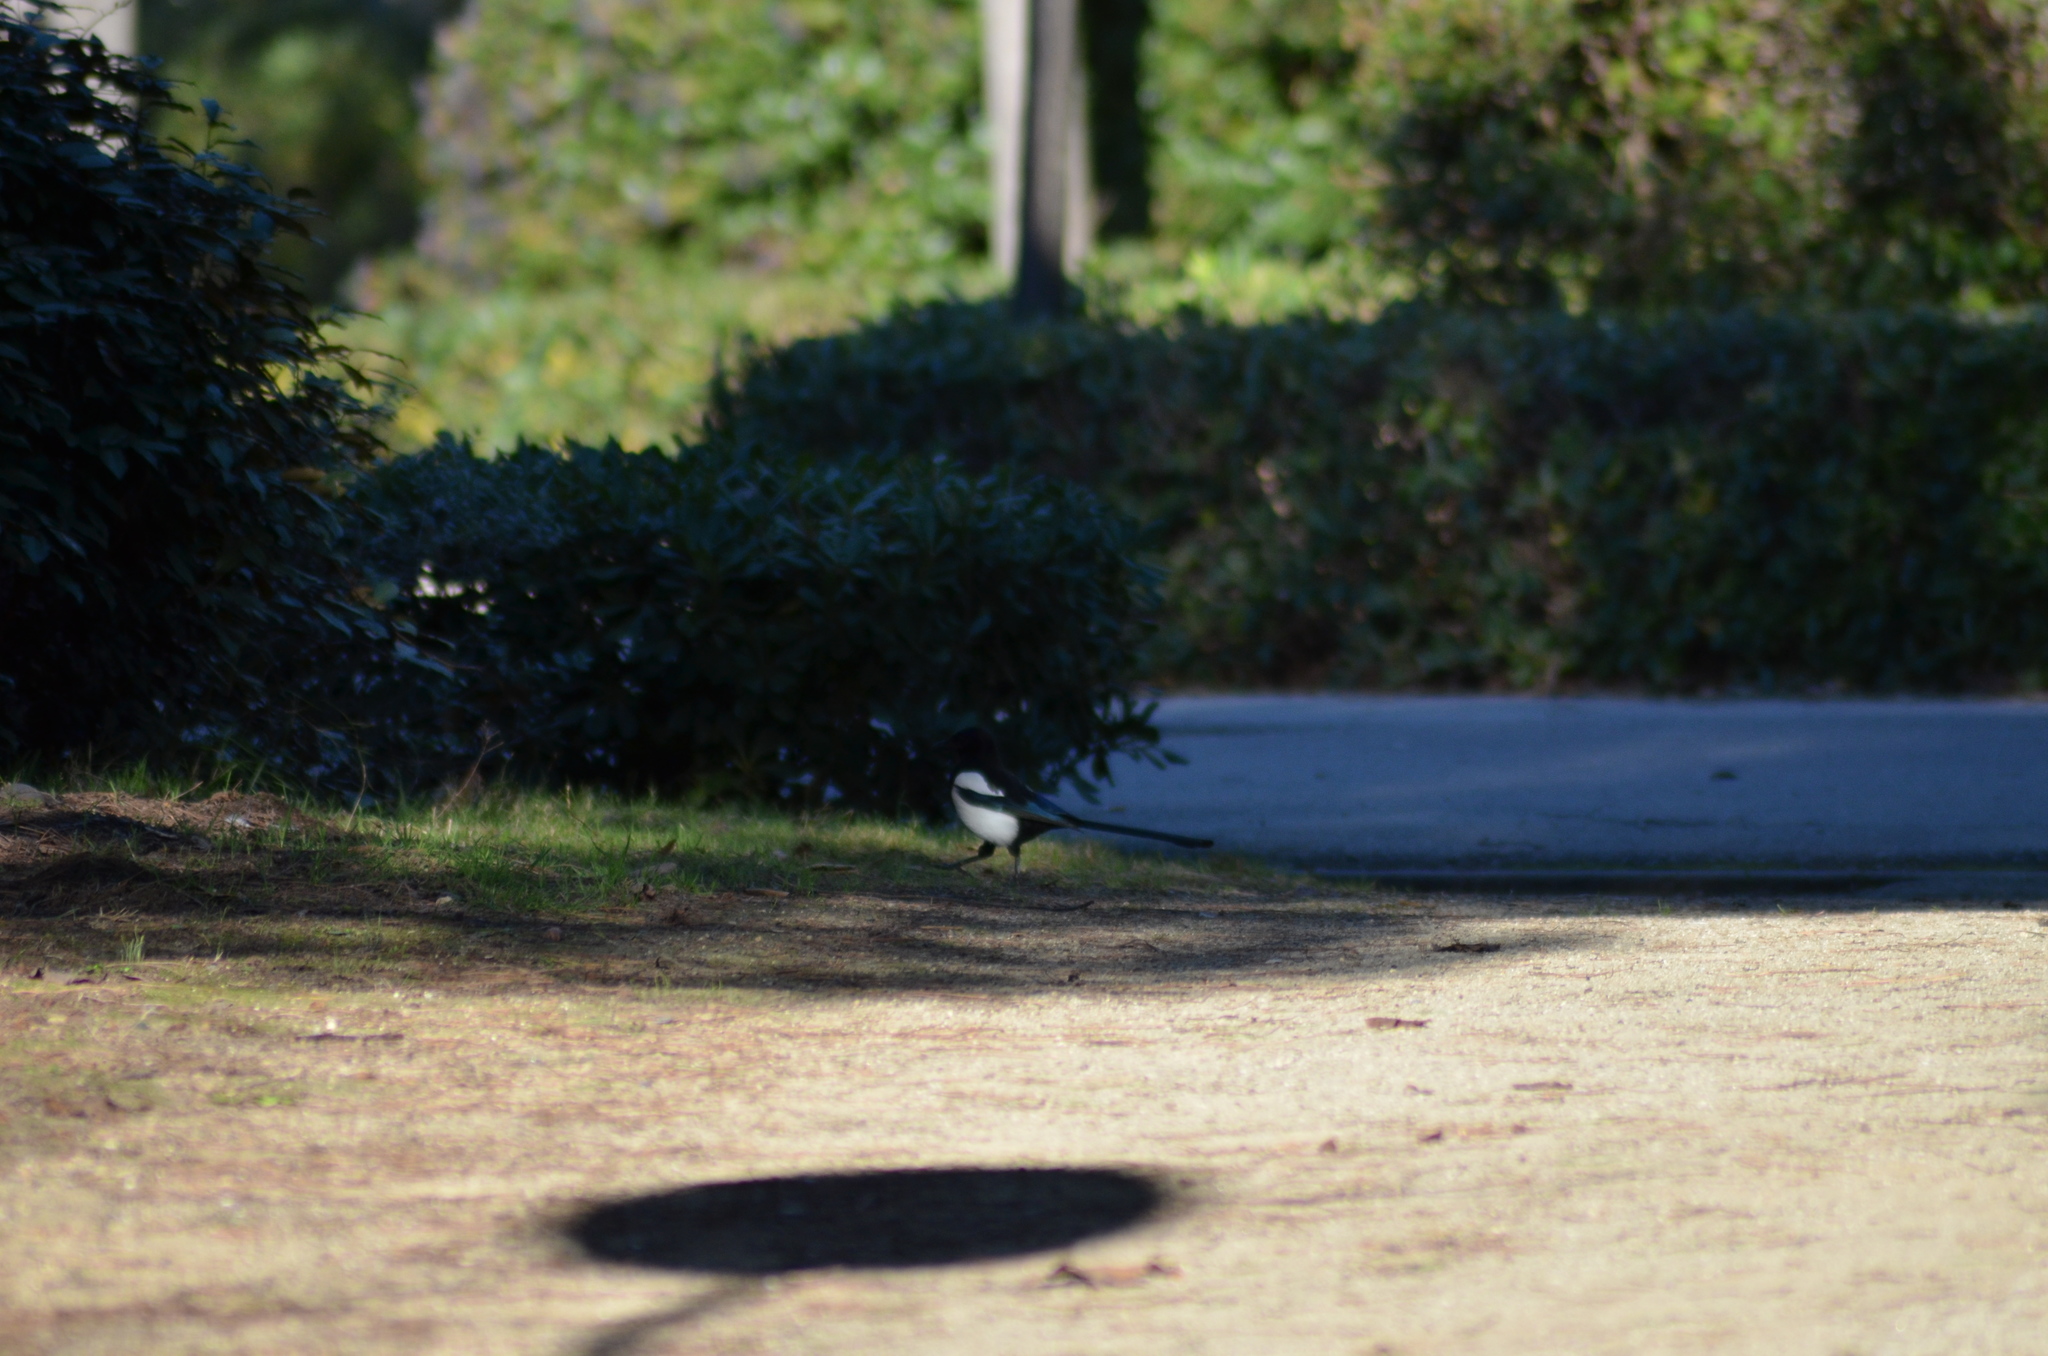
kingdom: Animalia
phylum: Chordata
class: Aves
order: Passeriformes
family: Corvidae
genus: Pica
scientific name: Pica pica
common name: Eurasian magpie
